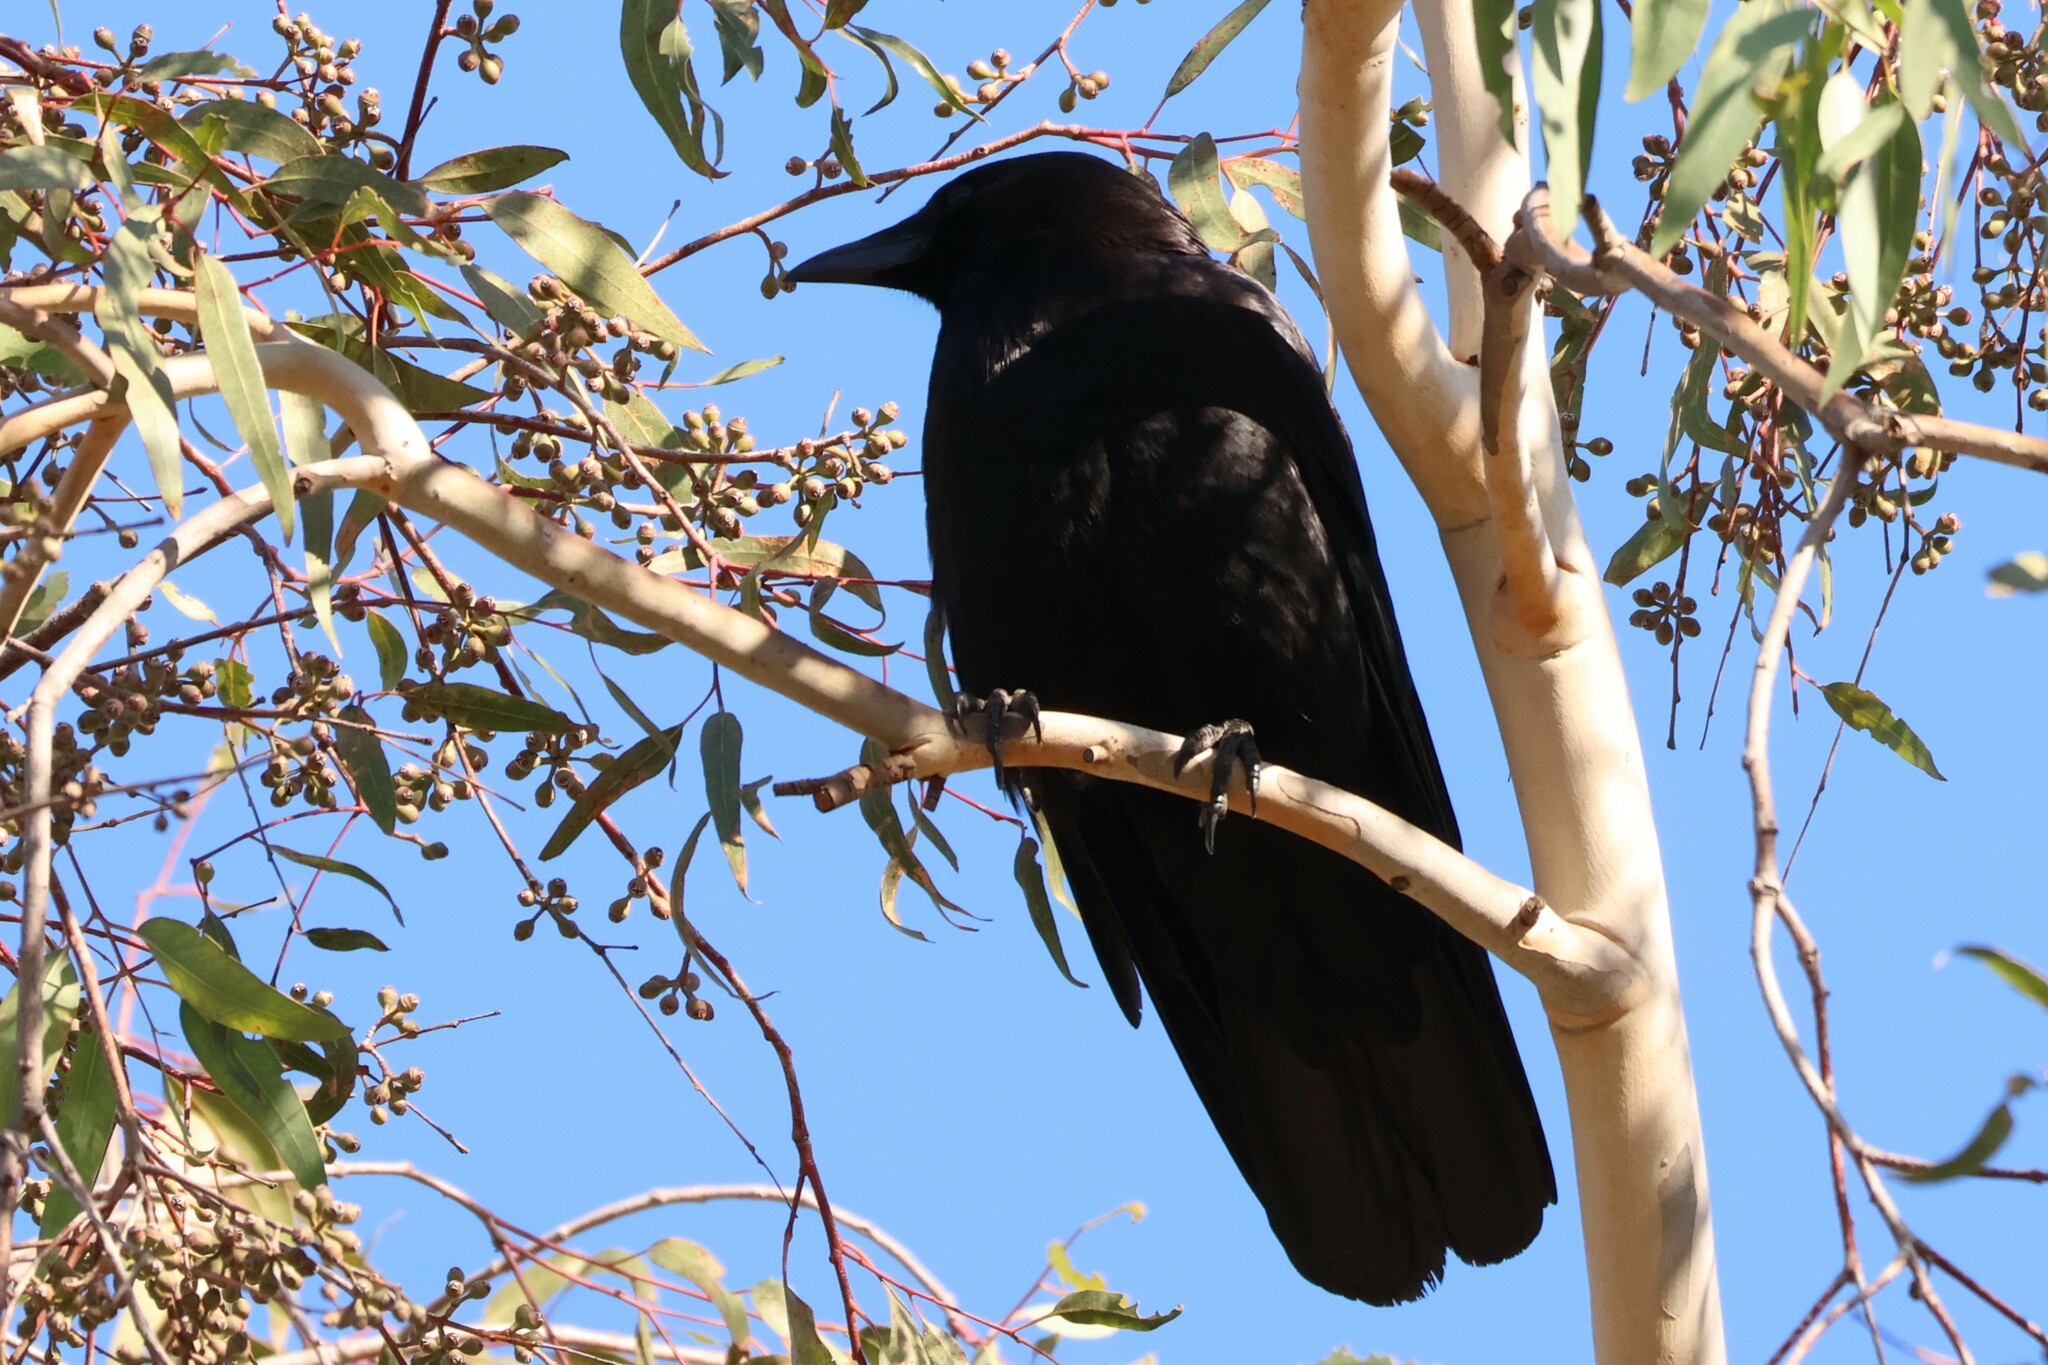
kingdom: Animalia
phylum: Chordata
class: Aves
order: Passeriformes
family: Corvidae
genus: Corvus
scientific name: Corvus brachyrhynchos
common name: American crow
